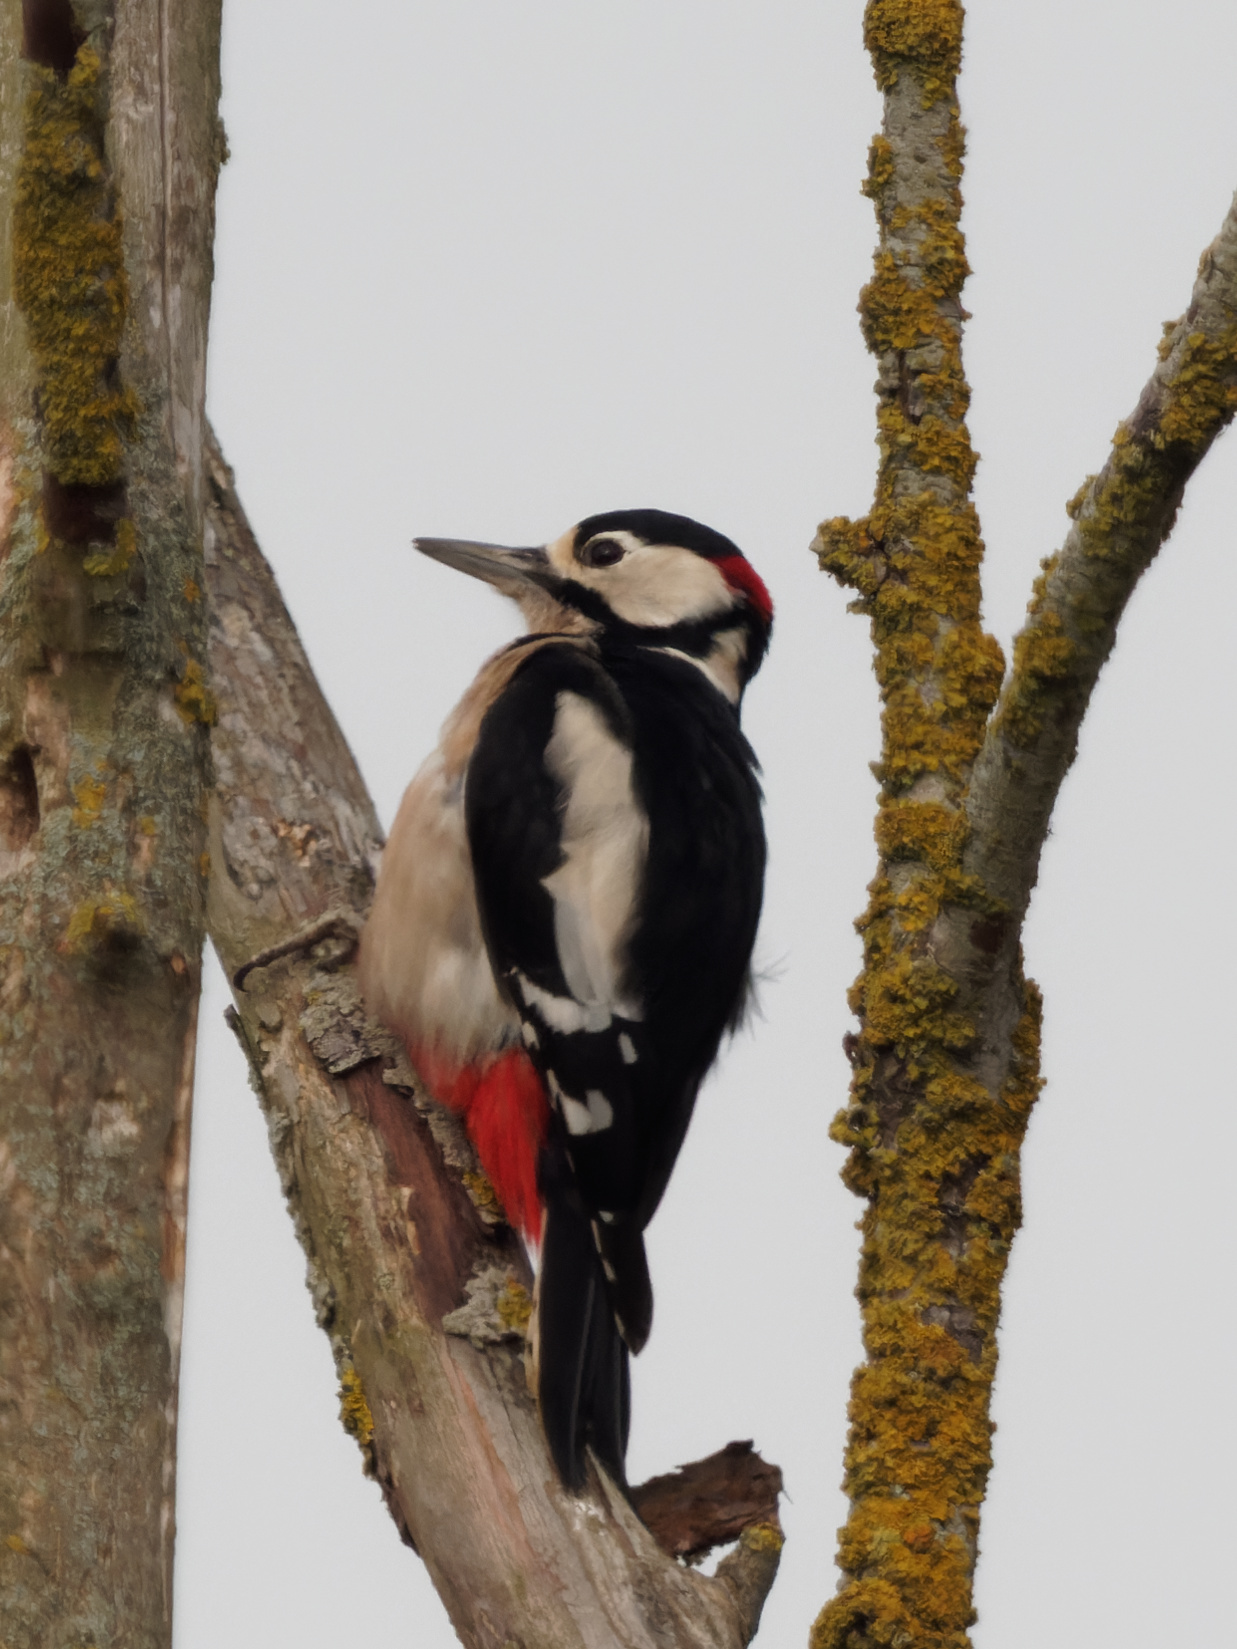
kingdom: Animalia
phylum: Chordata
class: Aves
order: Piciformes
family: Picidae
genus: Dendrocopos
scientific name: Dendrocopos major
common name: Great spotted woodpecker
